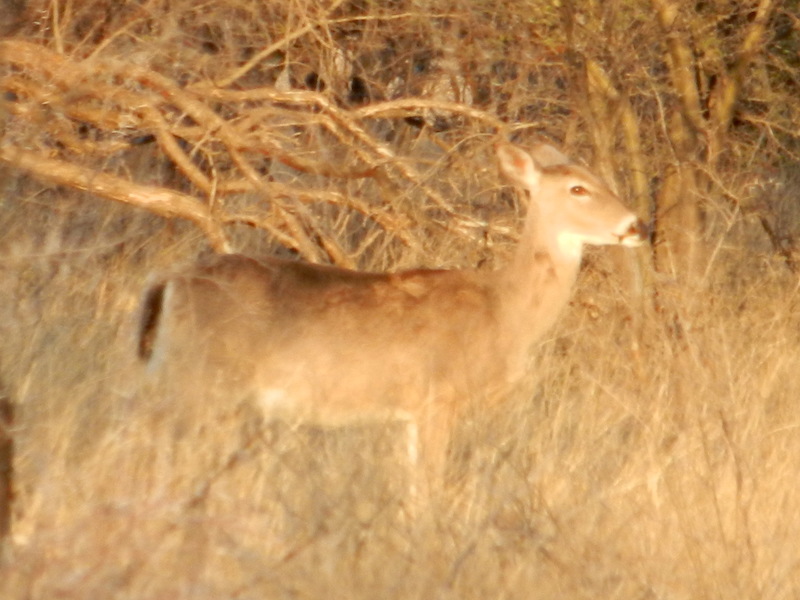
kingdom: Animalia
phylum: Chordata
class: Mammalia
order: Artiodactyla
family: Cervidae
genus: Odocoileus
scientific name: Odocoileus virginianus
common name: White-tailed deer
